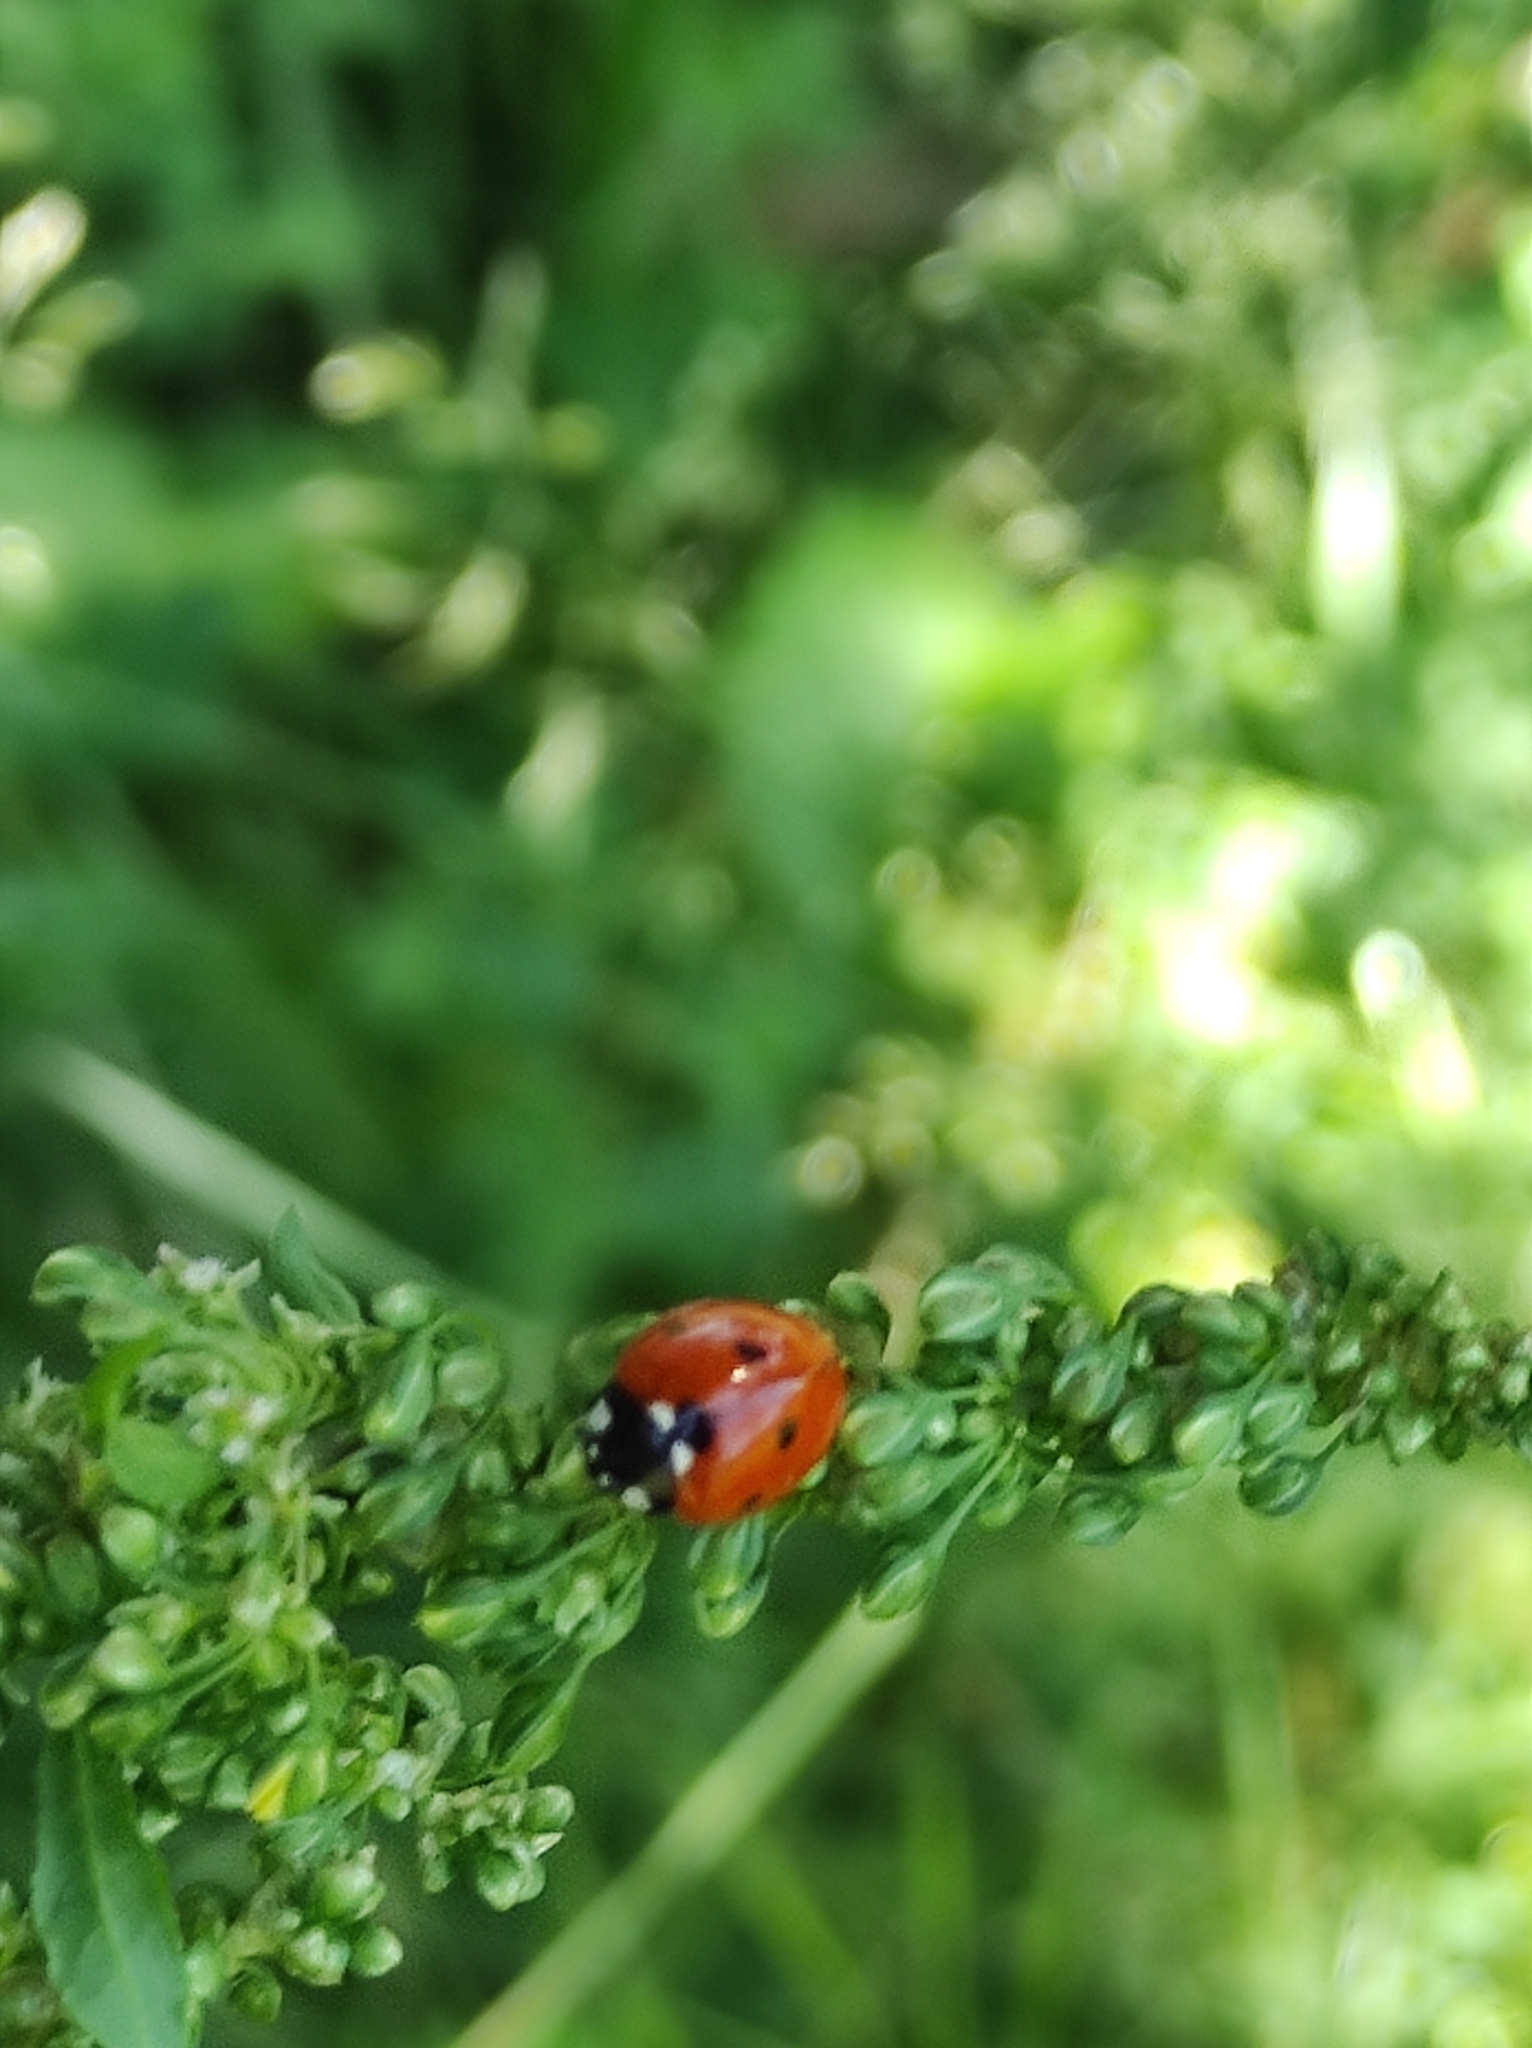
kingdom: Animalia
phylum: Arthropoda
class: Insecta
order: Coleoptera
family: Coccinellidae
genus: Coccinella
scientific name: Coccinella septempunctata
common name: Sevenspotted lady beetle
